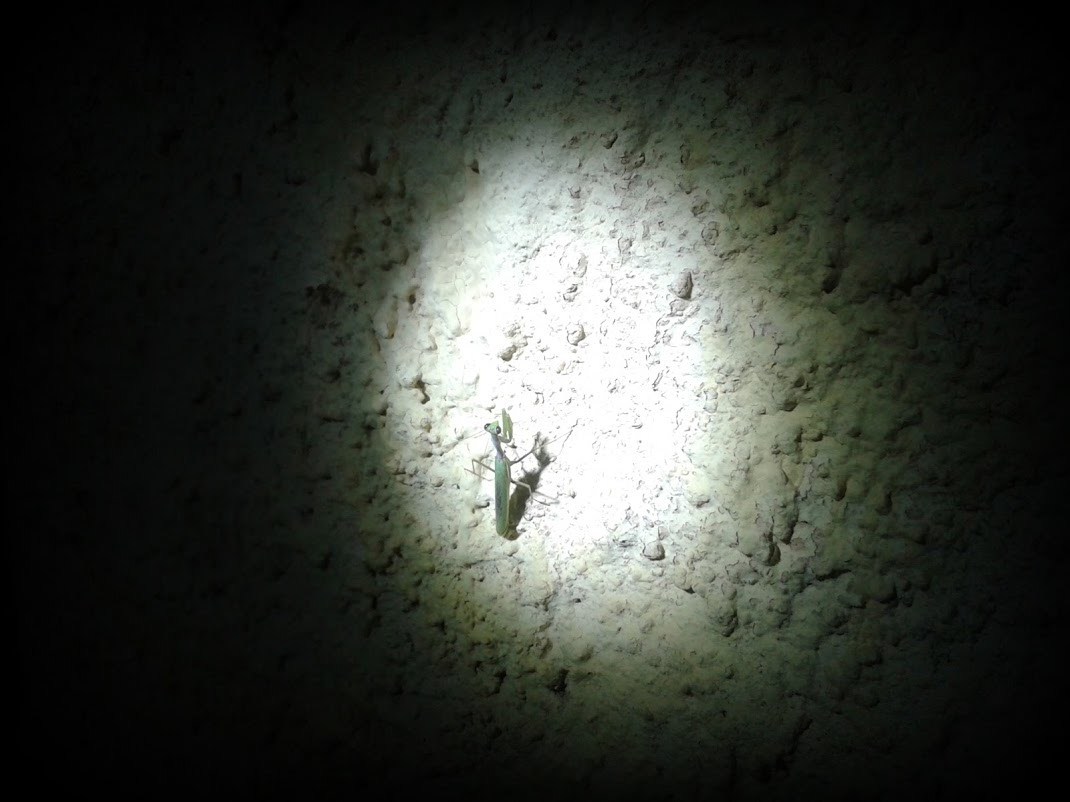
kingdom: Animalia
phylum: Arthropoda
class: Insecta
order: Mantodea
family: Eremiaphilidae
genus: Iris
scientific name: Iris oratoria
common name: Mediterranean mantis
